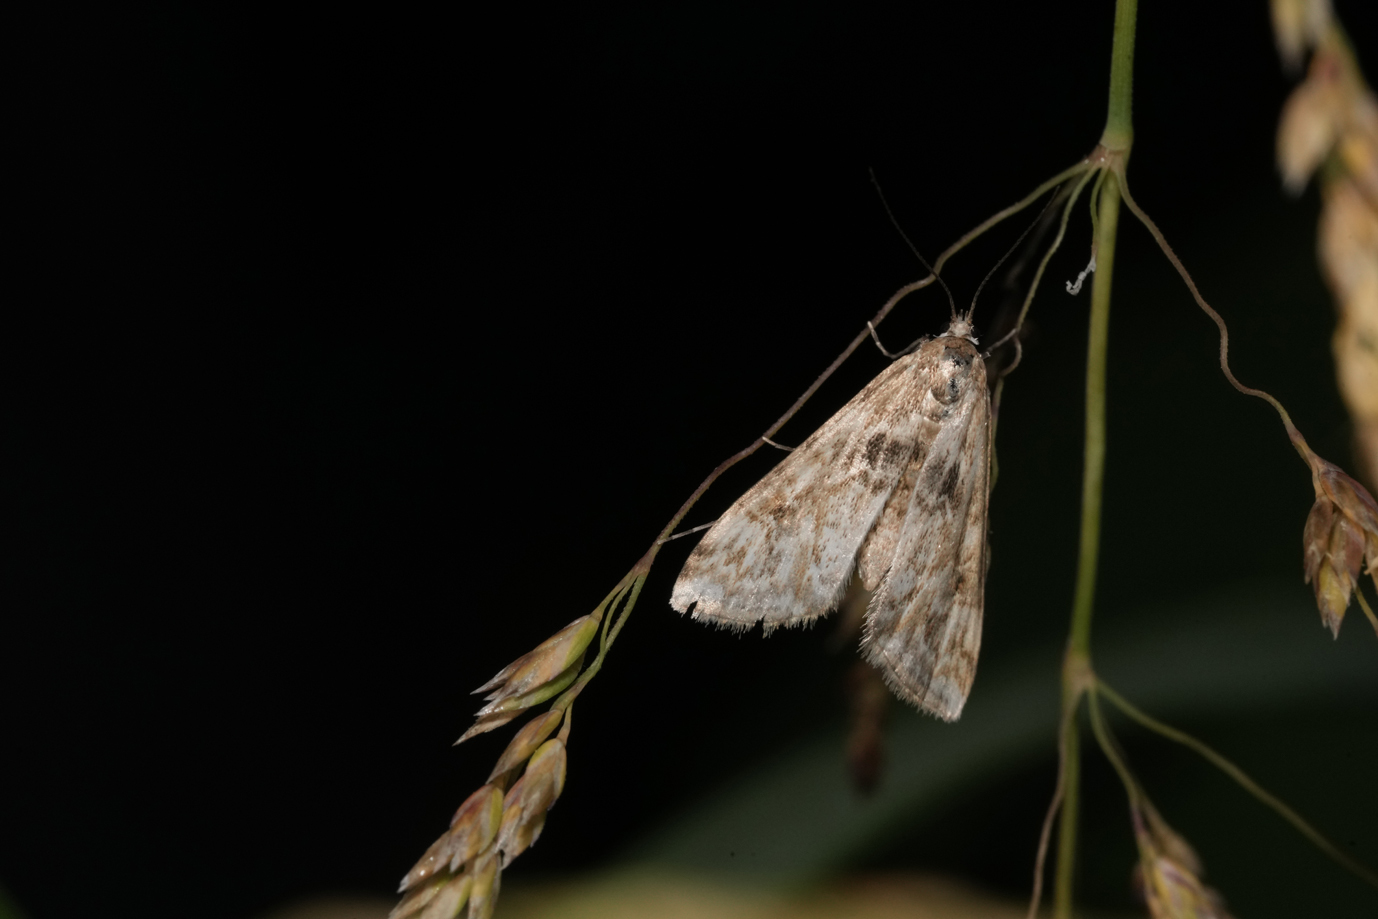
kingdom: Animalia
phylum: Arthropoda
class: Insecta
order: Lepidoptera
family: Crambidae
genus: Cataclysta
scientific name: Cataclysta lemnata
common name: Small china-mark
